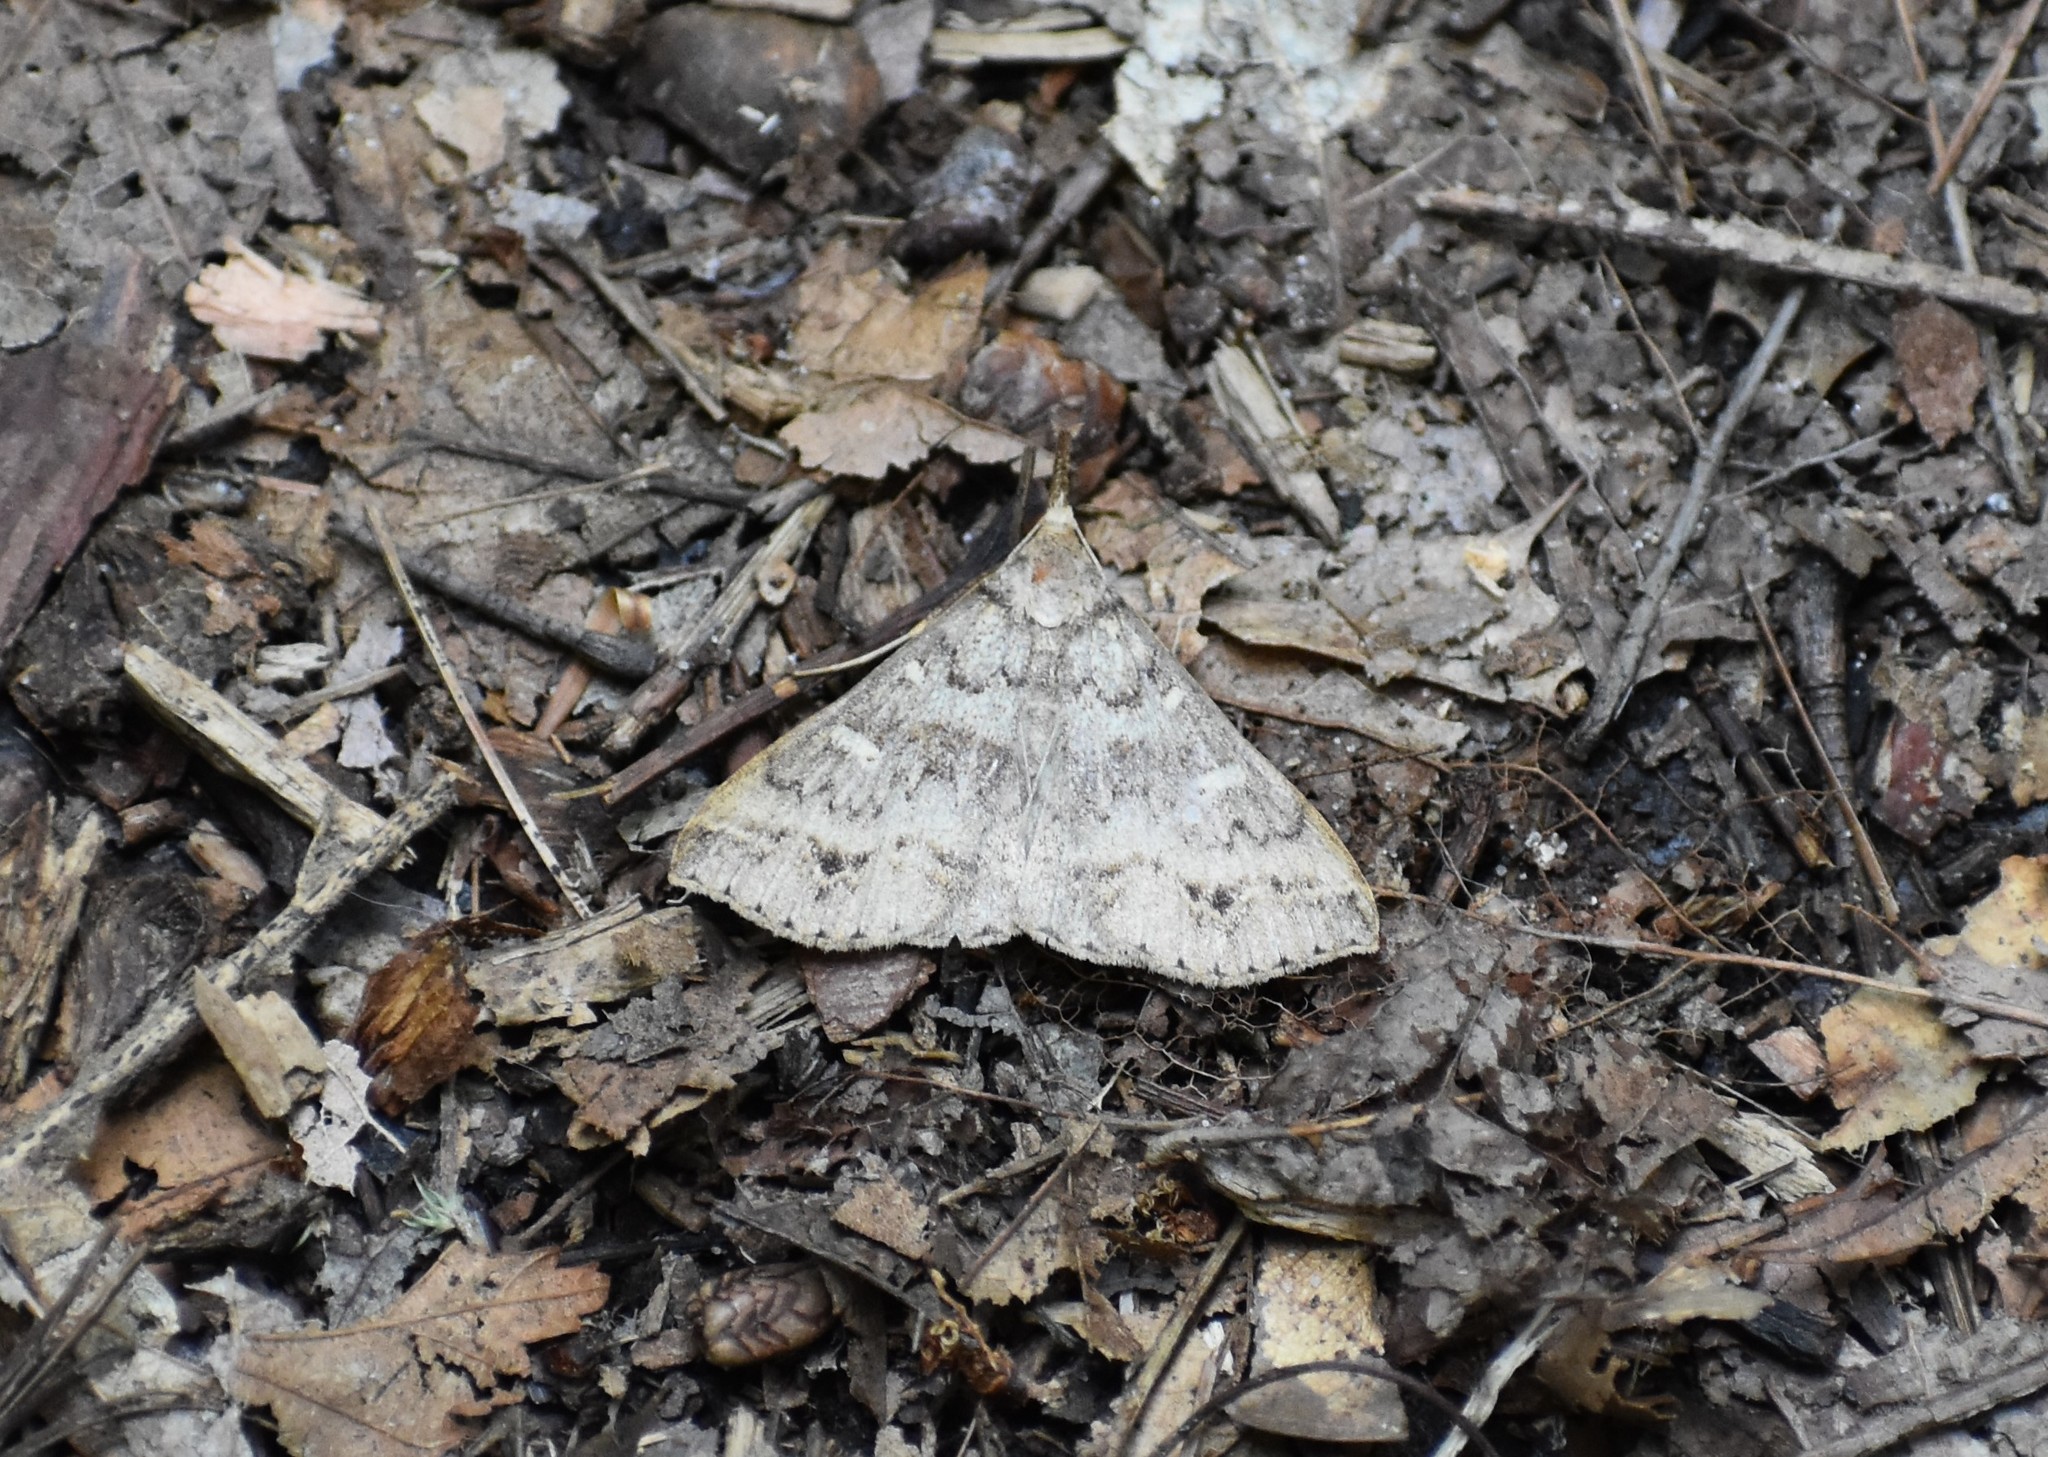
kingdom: Animalia
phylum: Arthropoda
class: Insecta
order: Lepidoptera
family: Erebidae
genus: Renia
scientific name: Renia discoloralis
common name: Discolored renia moth
